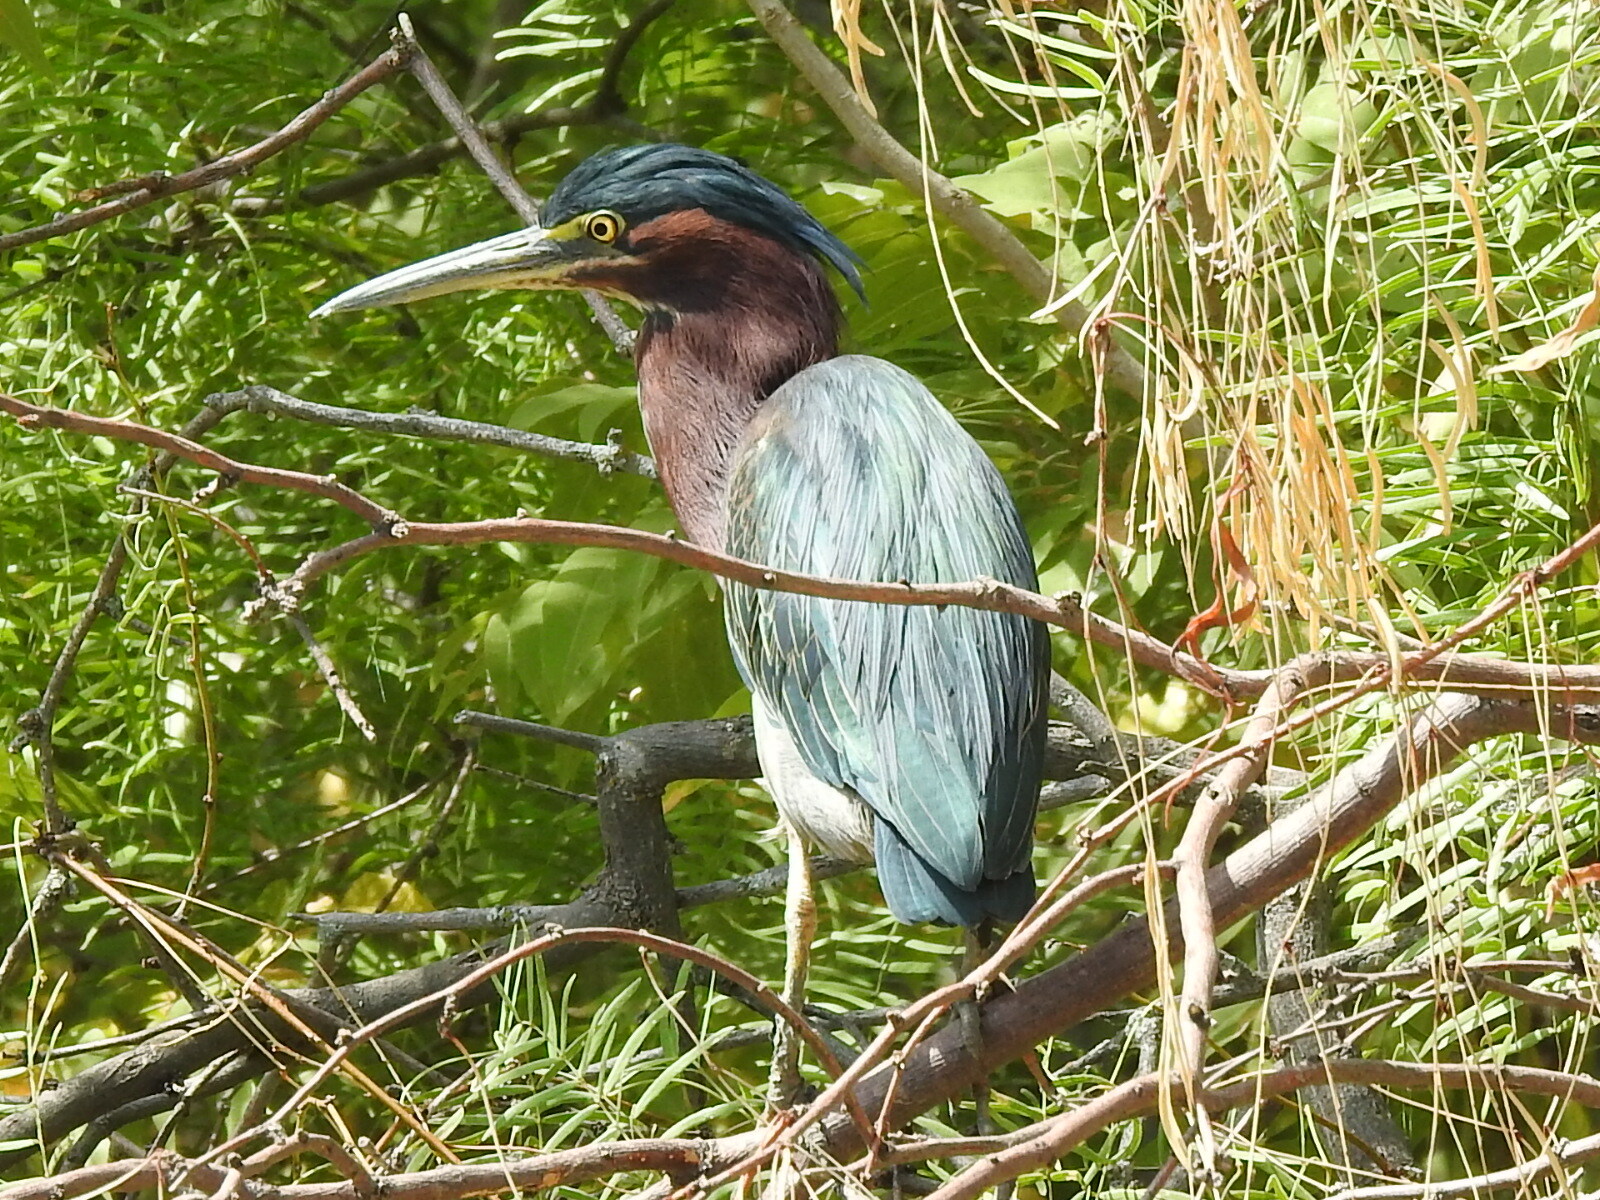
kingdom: Animalia
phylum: Chordata
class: Aves
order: Pelecaniformes
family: Ardeidae
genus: Butorides
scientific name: Butorides virescens
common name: Green heron
